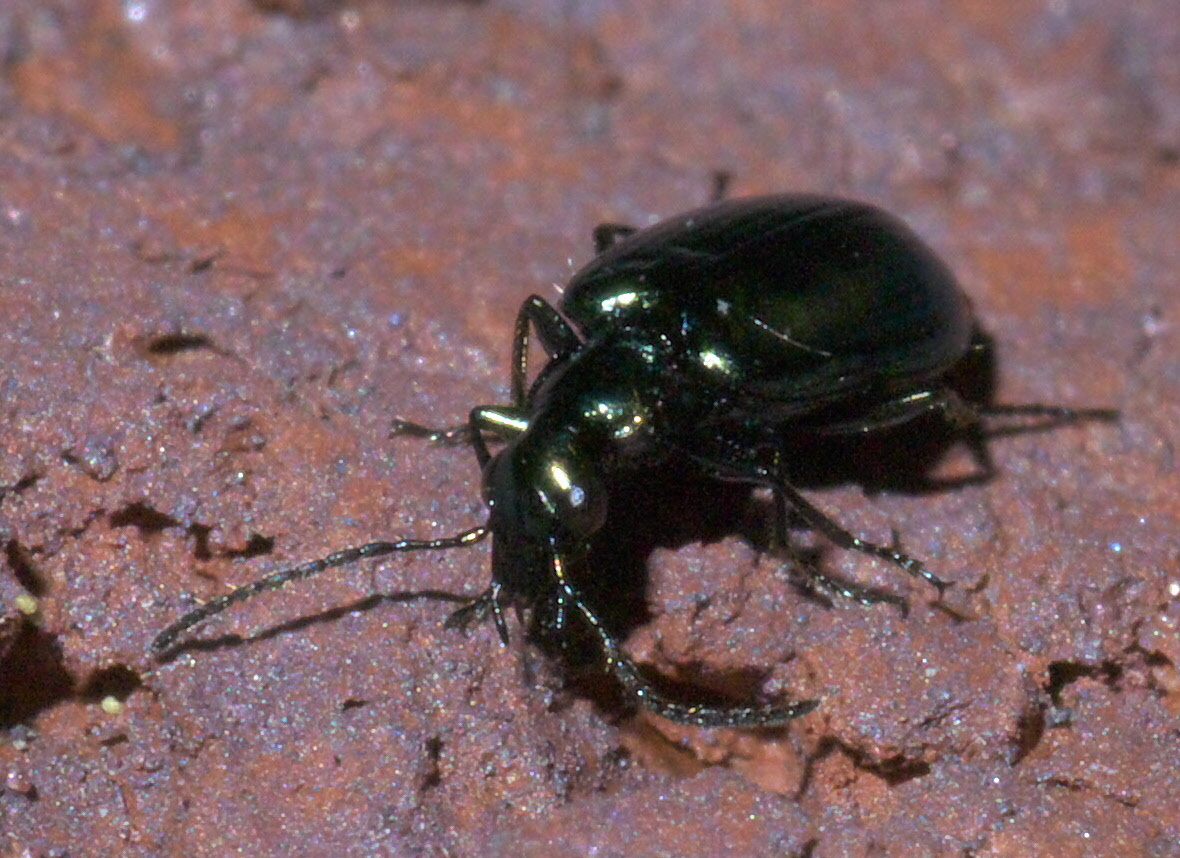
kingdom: Animalia
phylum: Arthropoda
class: Insecta
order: Coleoptera
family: Carabidae
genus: Lebia
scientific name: Lebia viridis
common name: Flower lebia beetle
